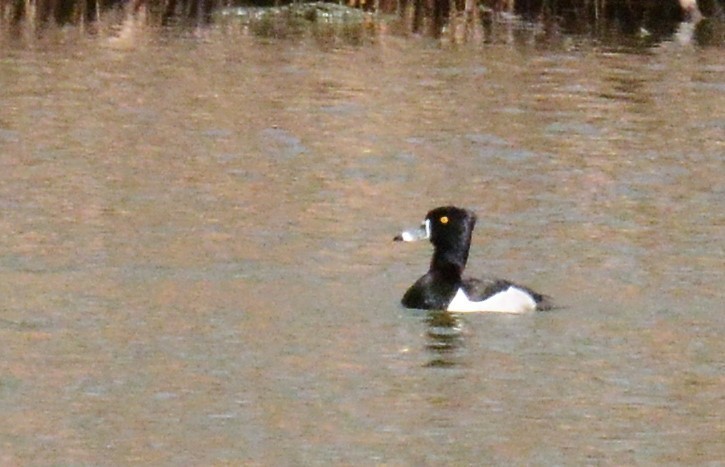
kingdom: Animalia
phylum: Chordata
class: Aves
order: Anseriformes
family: Anatidae
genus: Aythya
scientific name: Aythya collaris
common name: Ring-necked duck
